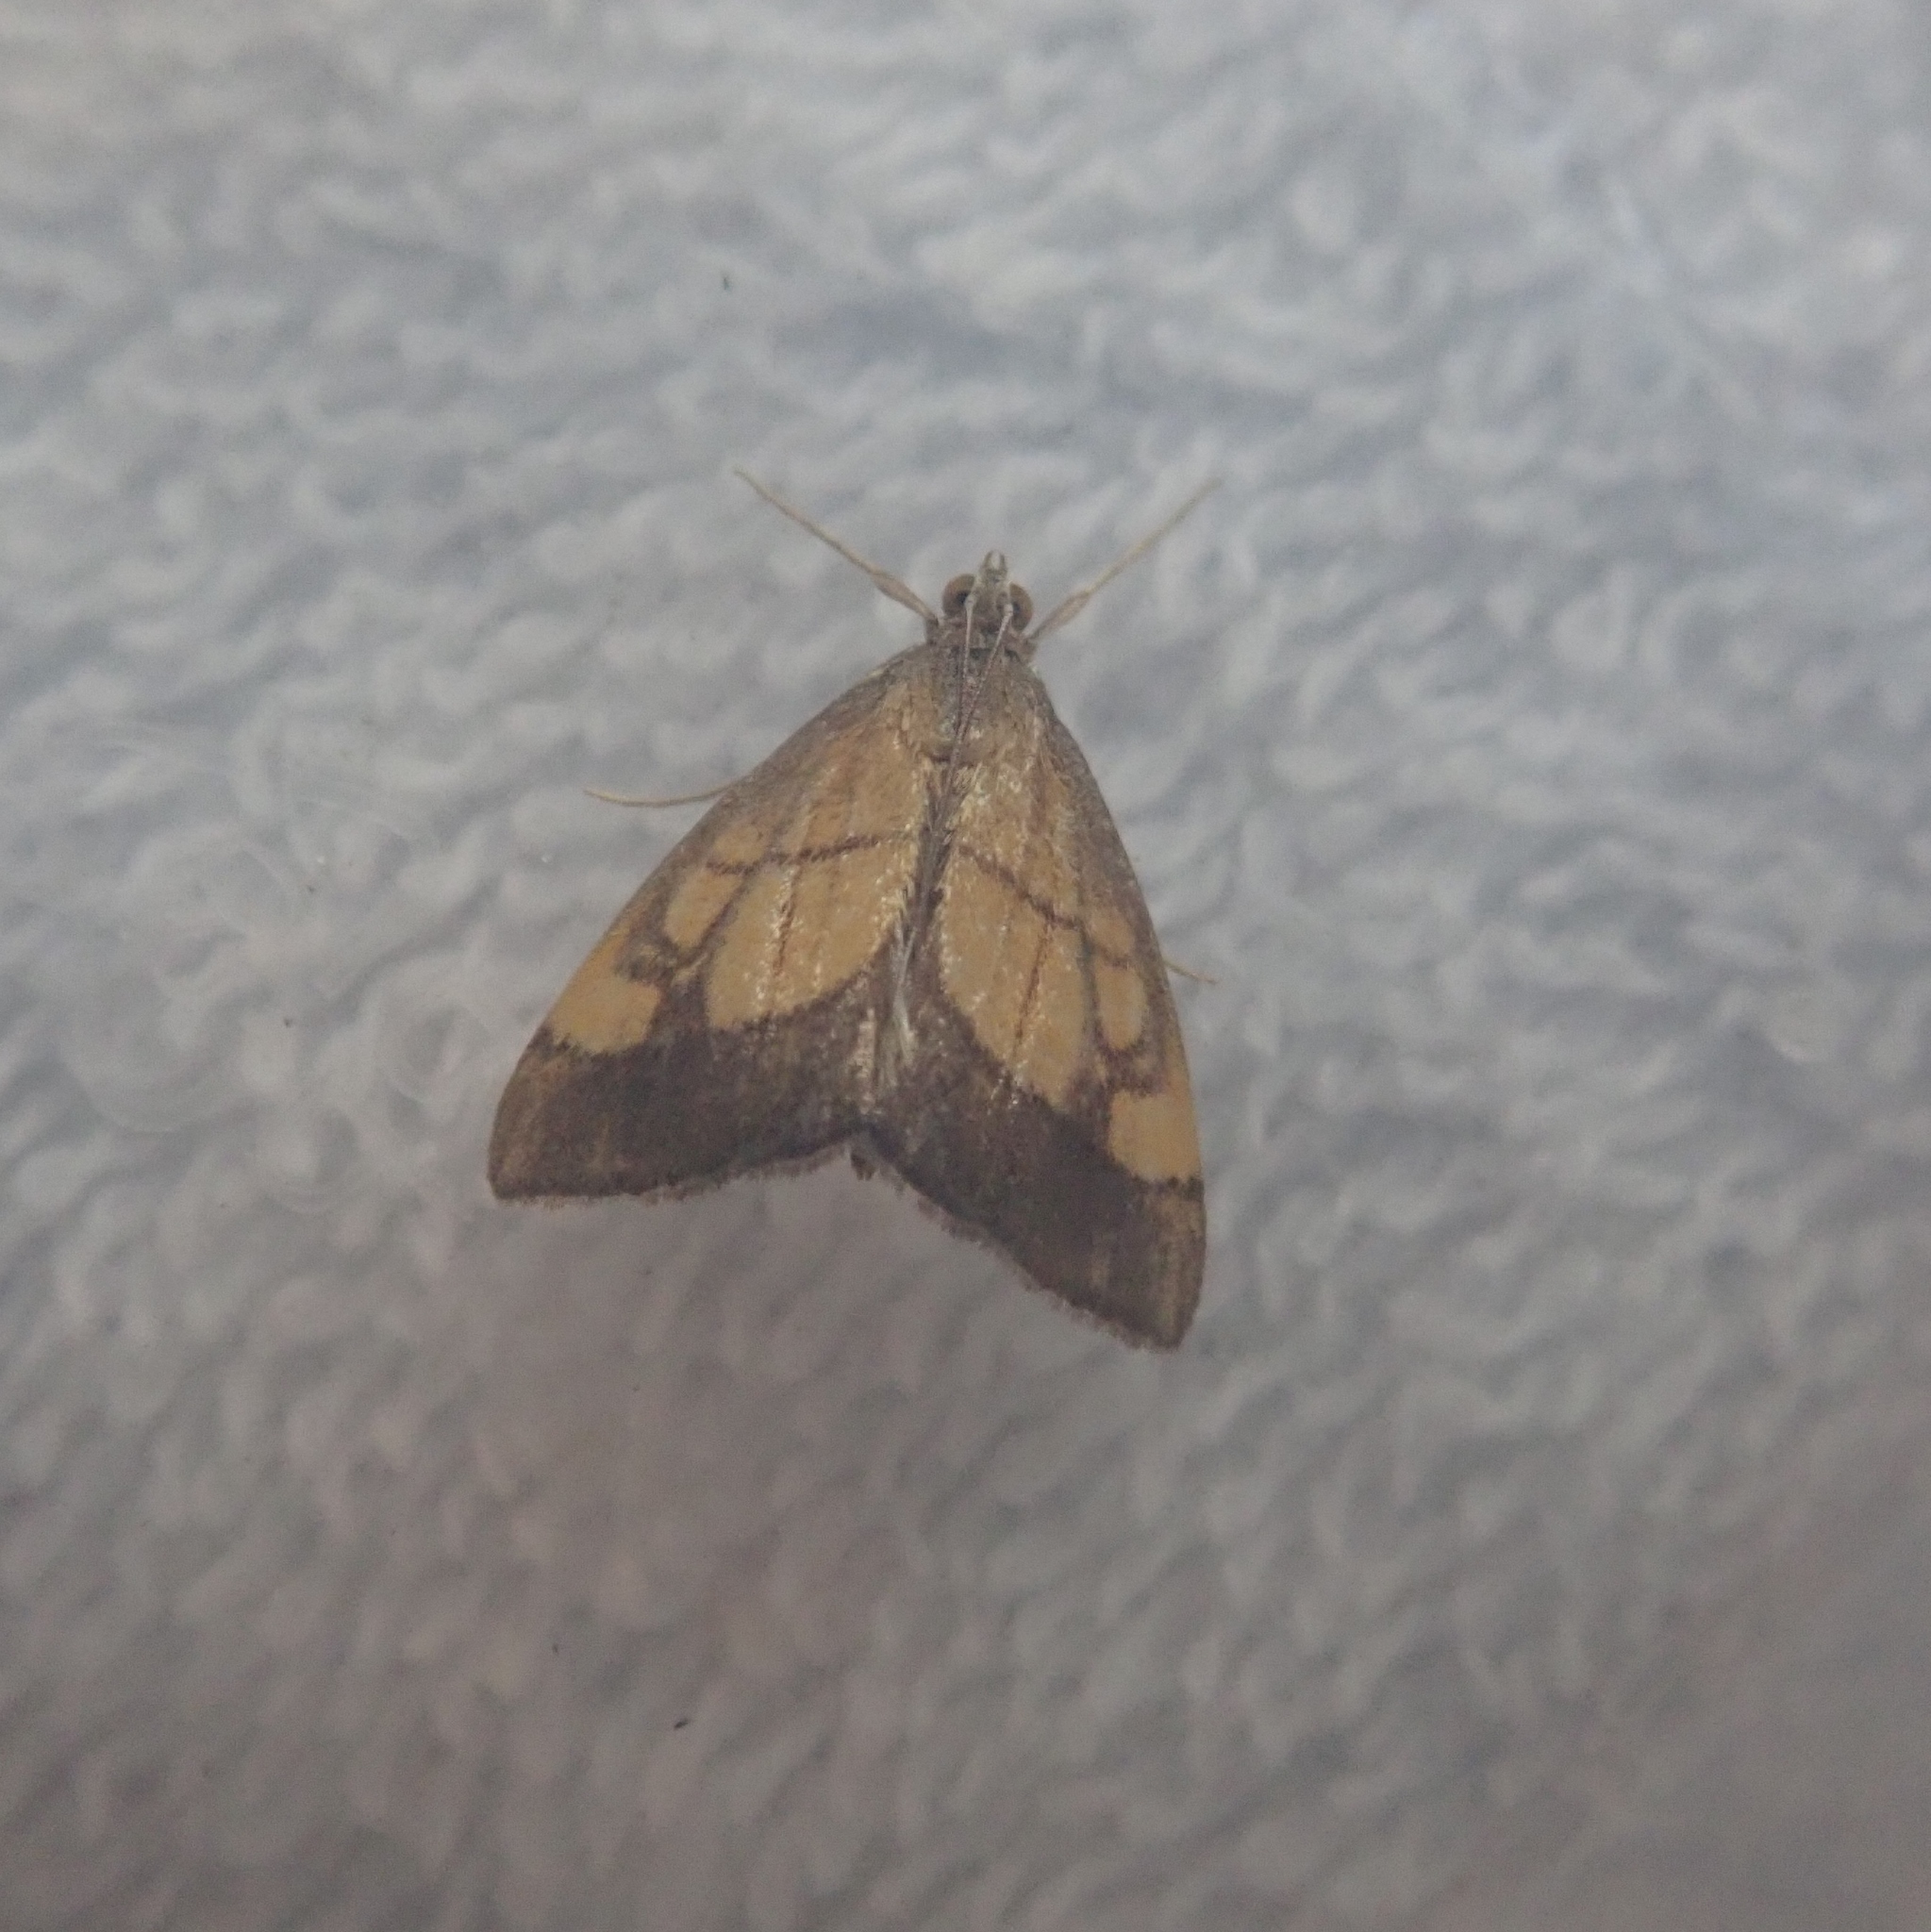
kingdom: Animalia
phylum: Arthropoda
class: Insecta
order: Lepidoptera
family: Crambidae
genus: Evergestis
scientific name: Evergestis limbata
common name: Dark bordered pearl
